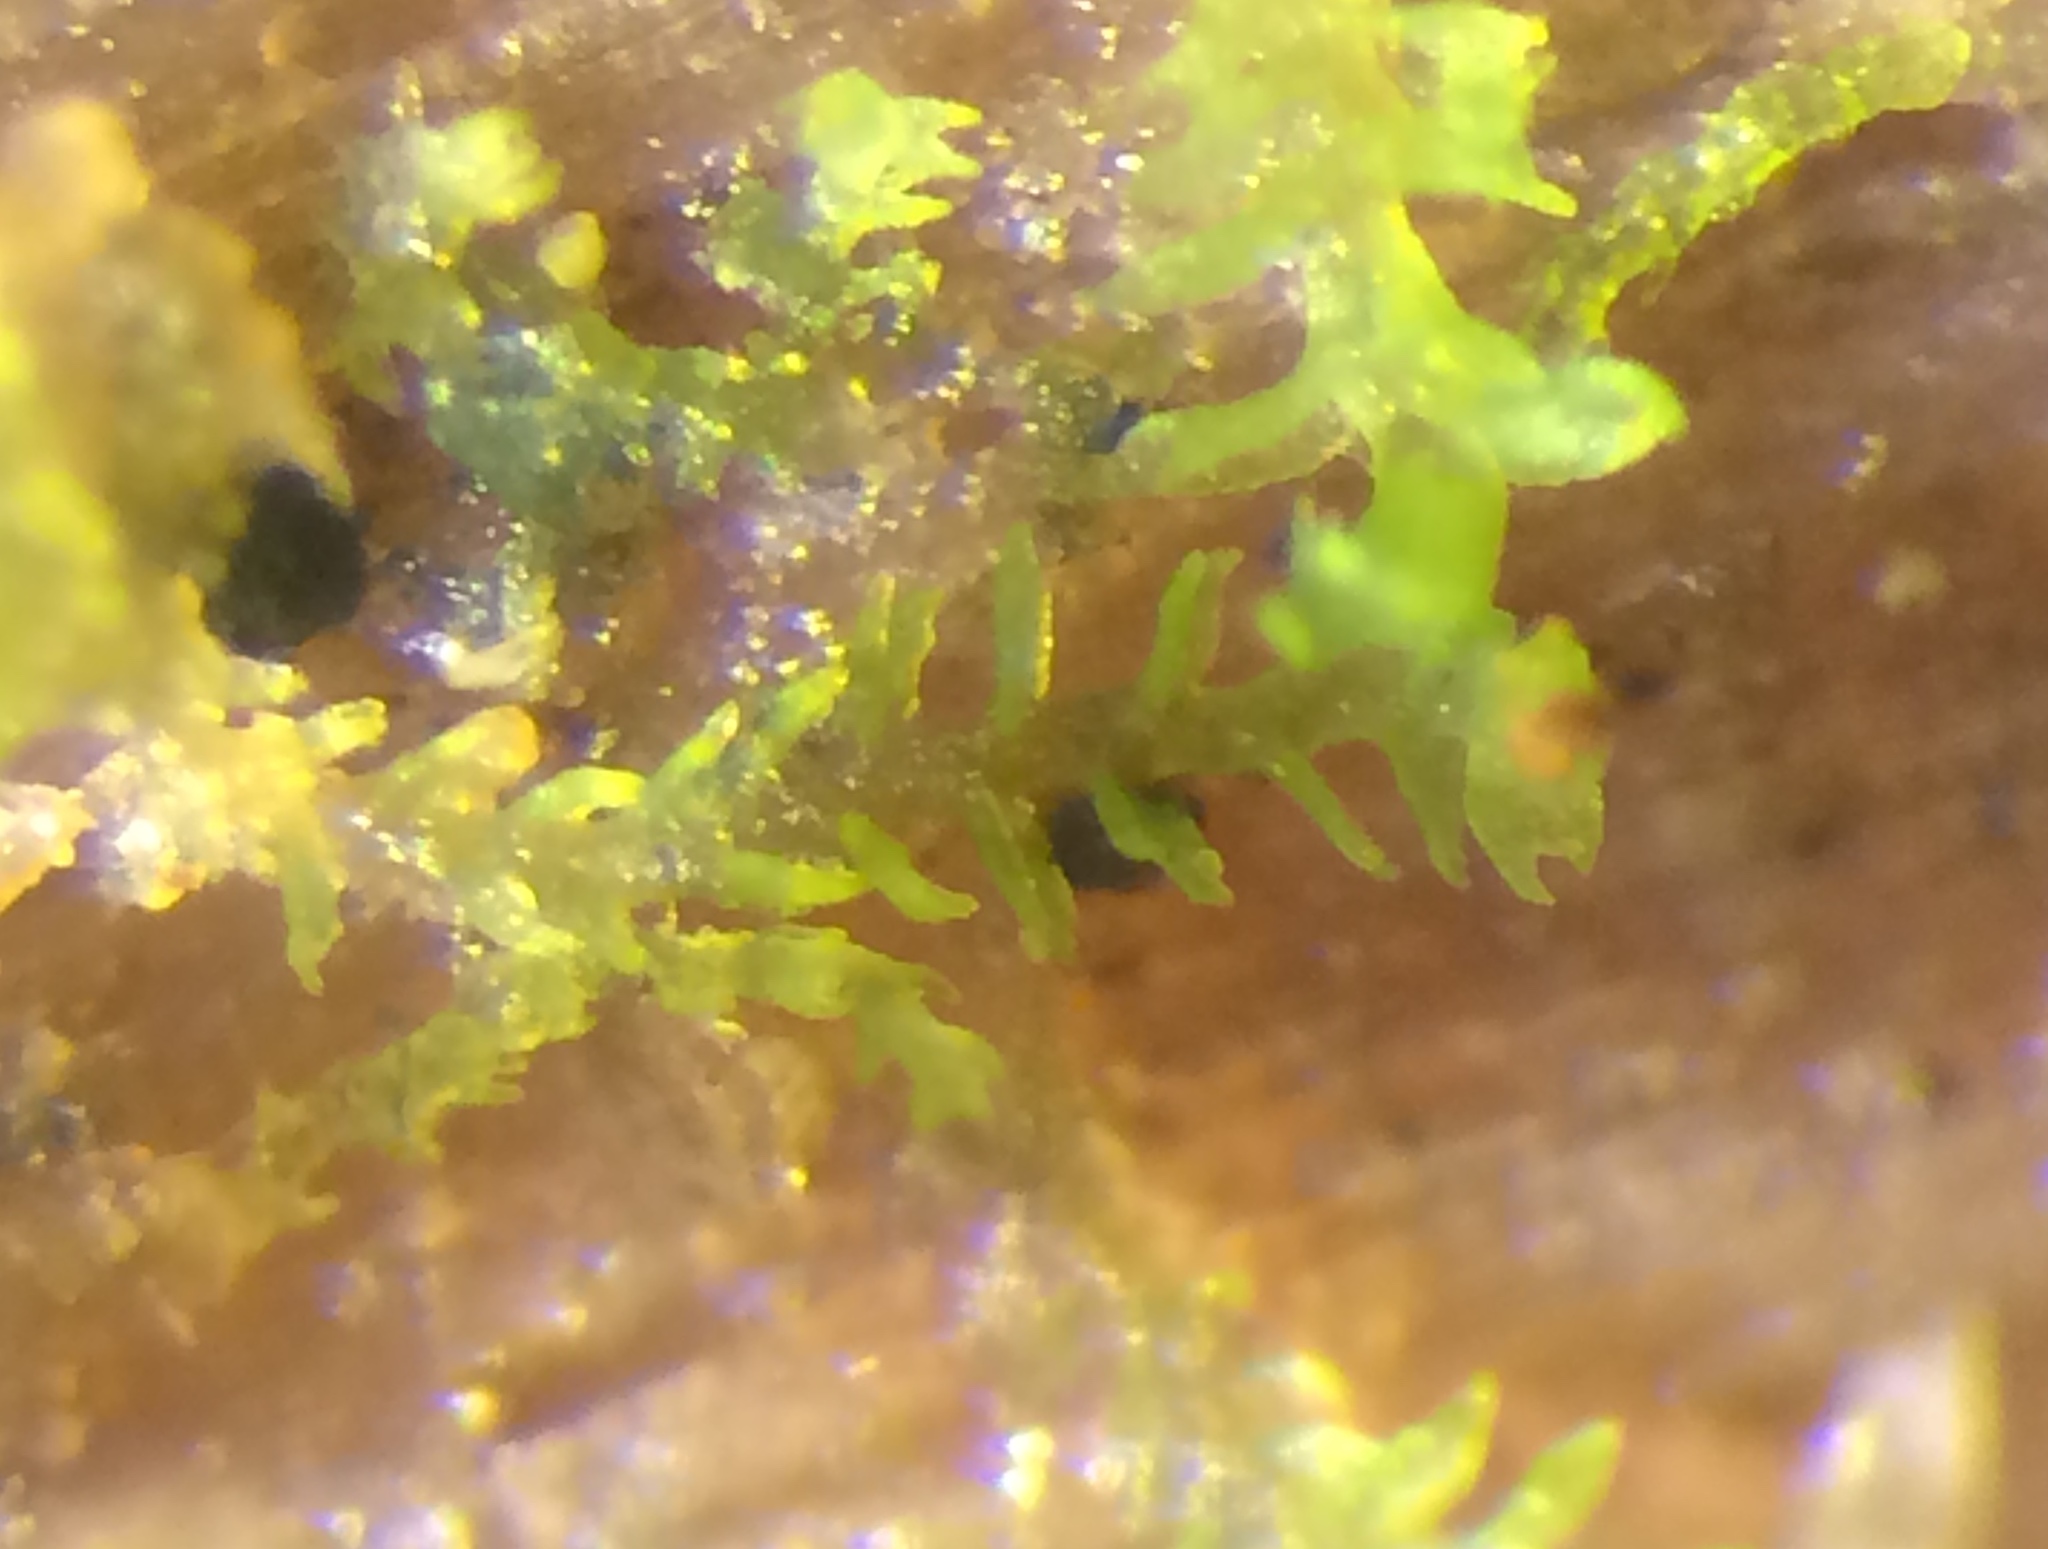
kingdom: Plantae
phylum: Marchantiophyta
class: Jungermanniopsida
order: Jungermanniales
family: Anastrophyllaceae
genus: Crossocalyx
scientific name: Crossocalyx hellerianus
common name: Heller's notchwort
